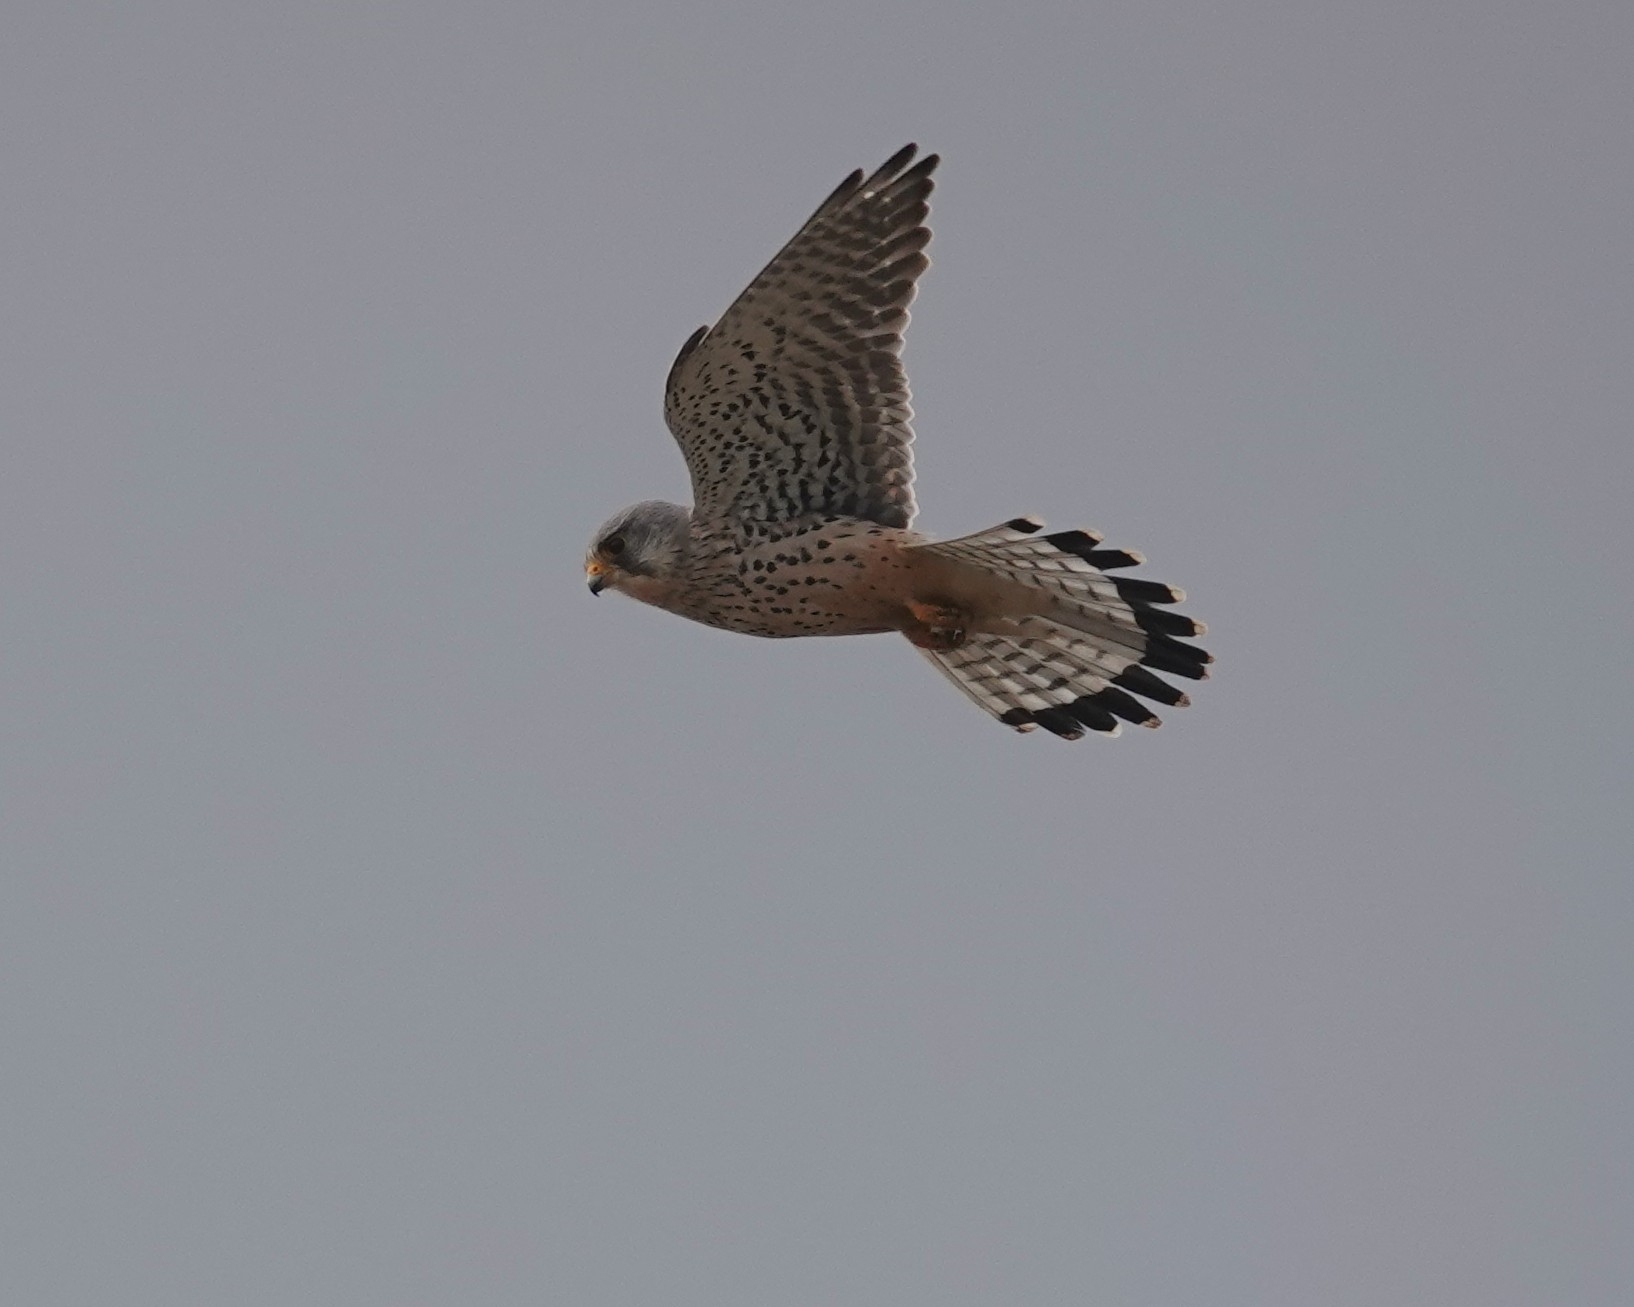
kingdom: Animalia
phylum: Chordata
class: Aves
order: Falconiformes
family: Falconidae
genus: Falco
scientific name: Falco tinnunculus
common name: Common kestrel
